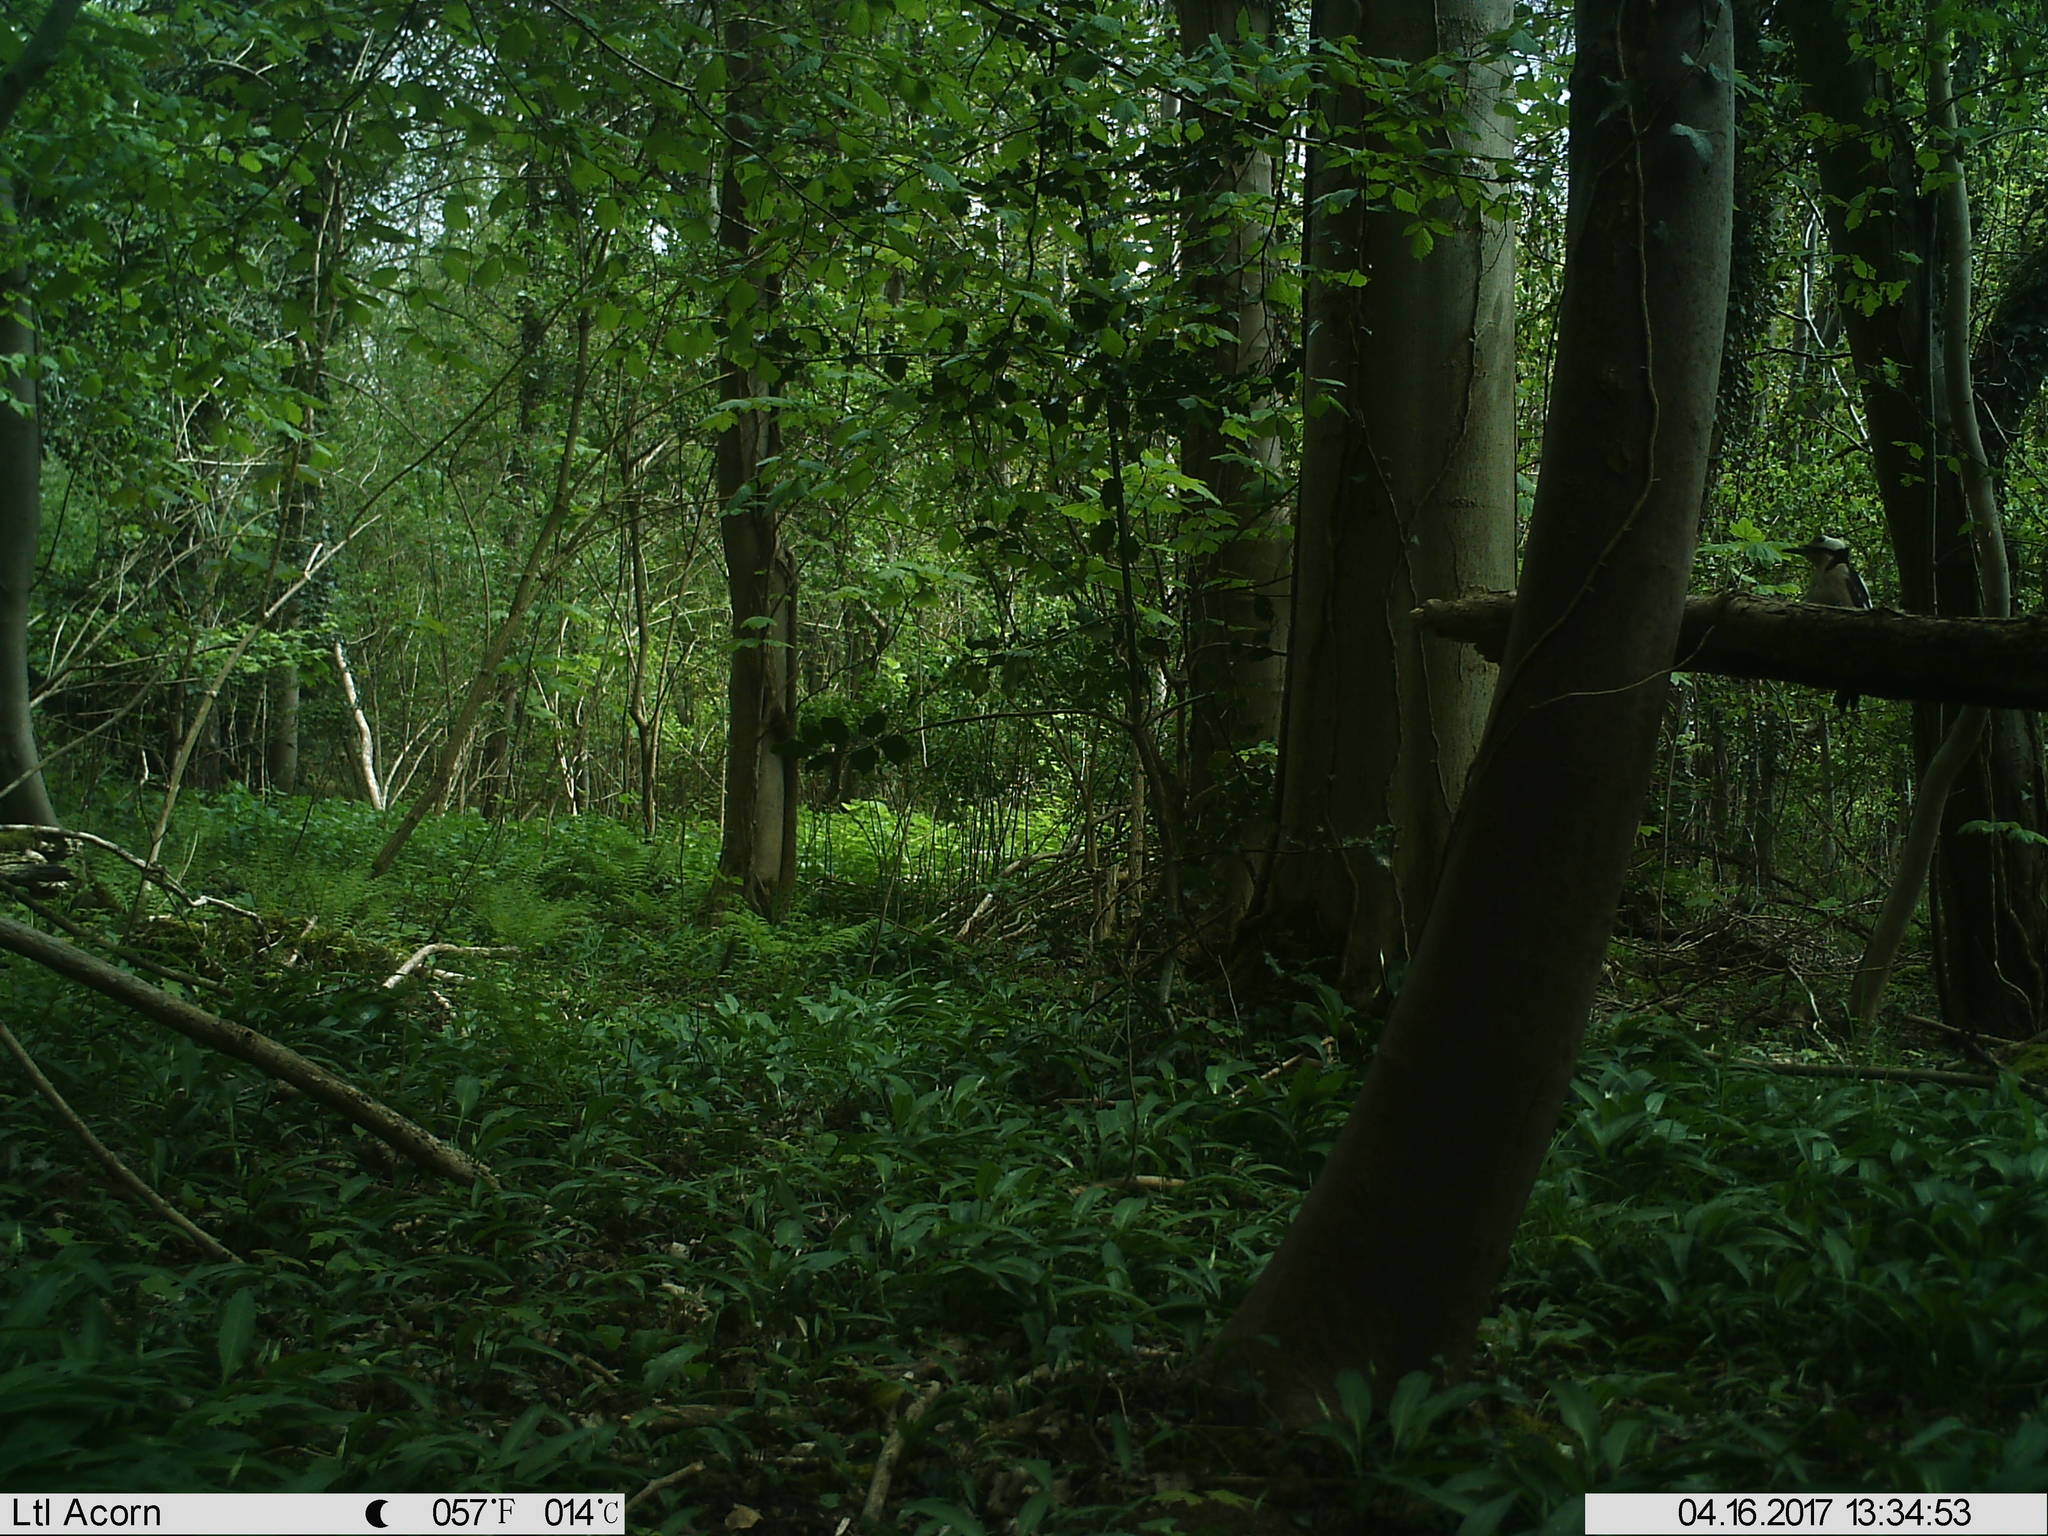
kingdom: Animalia
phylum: Chordata
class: Aves
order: Piciformes
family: Picidae
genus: Dendrocopos
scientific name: Dendrocopos major
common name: Great spotted woodpecker
